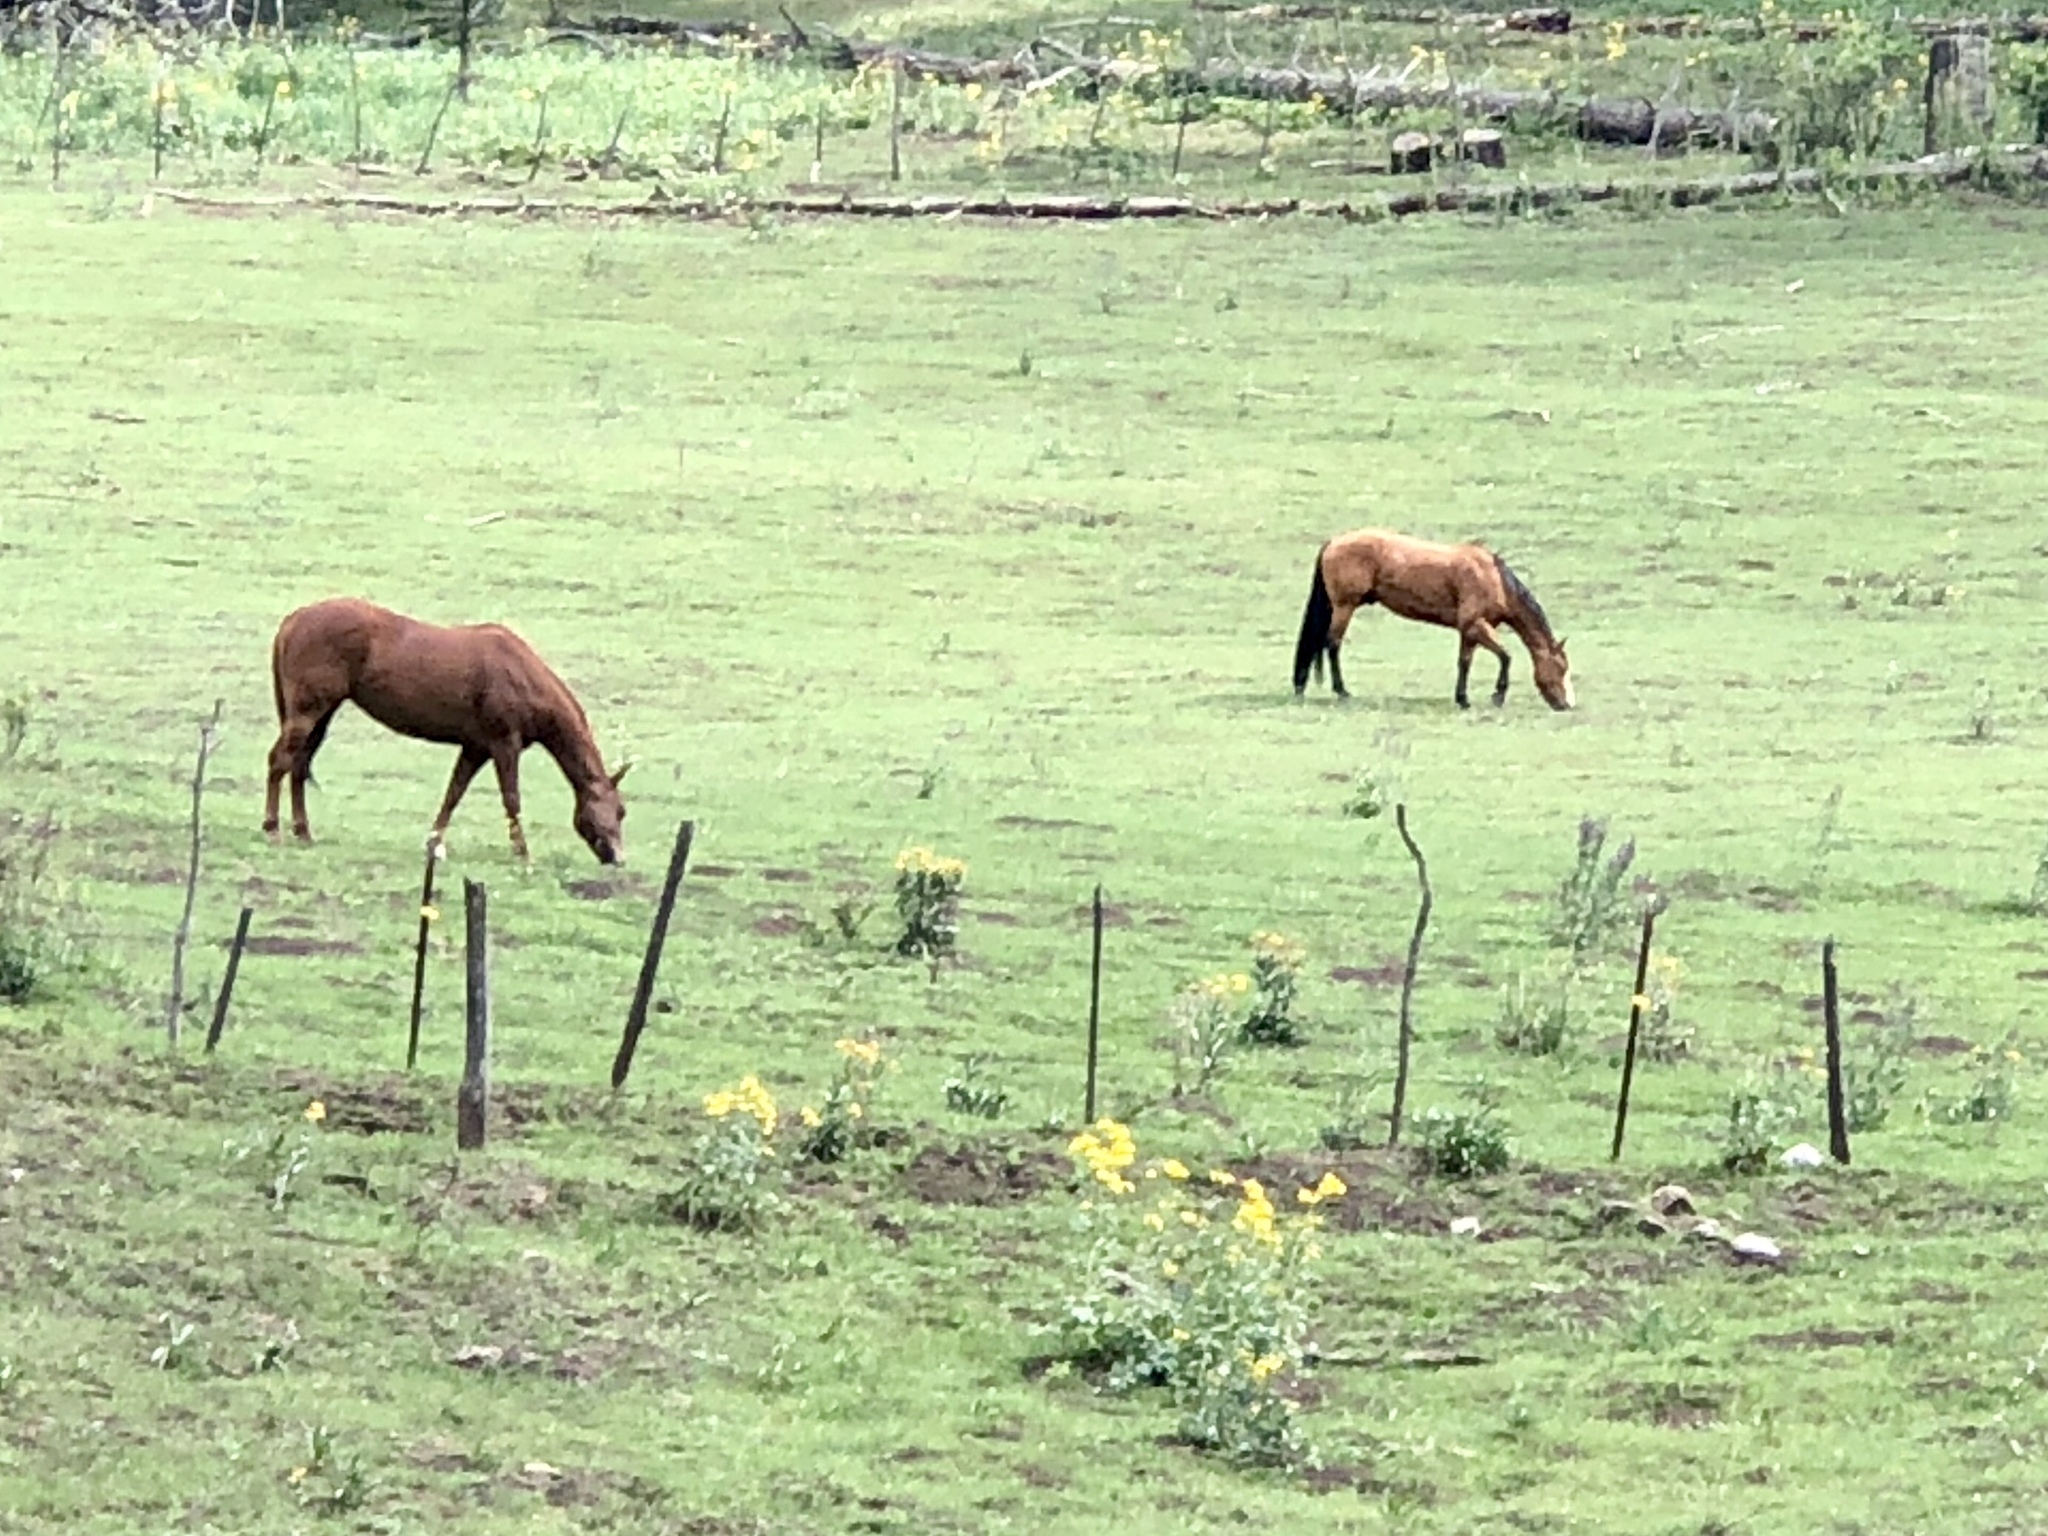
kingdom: Animalia
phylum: Chordata
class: Mammalia
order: Perissodactyla
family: Equidae
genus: Equus
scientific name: Equus caballus
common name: Horse
